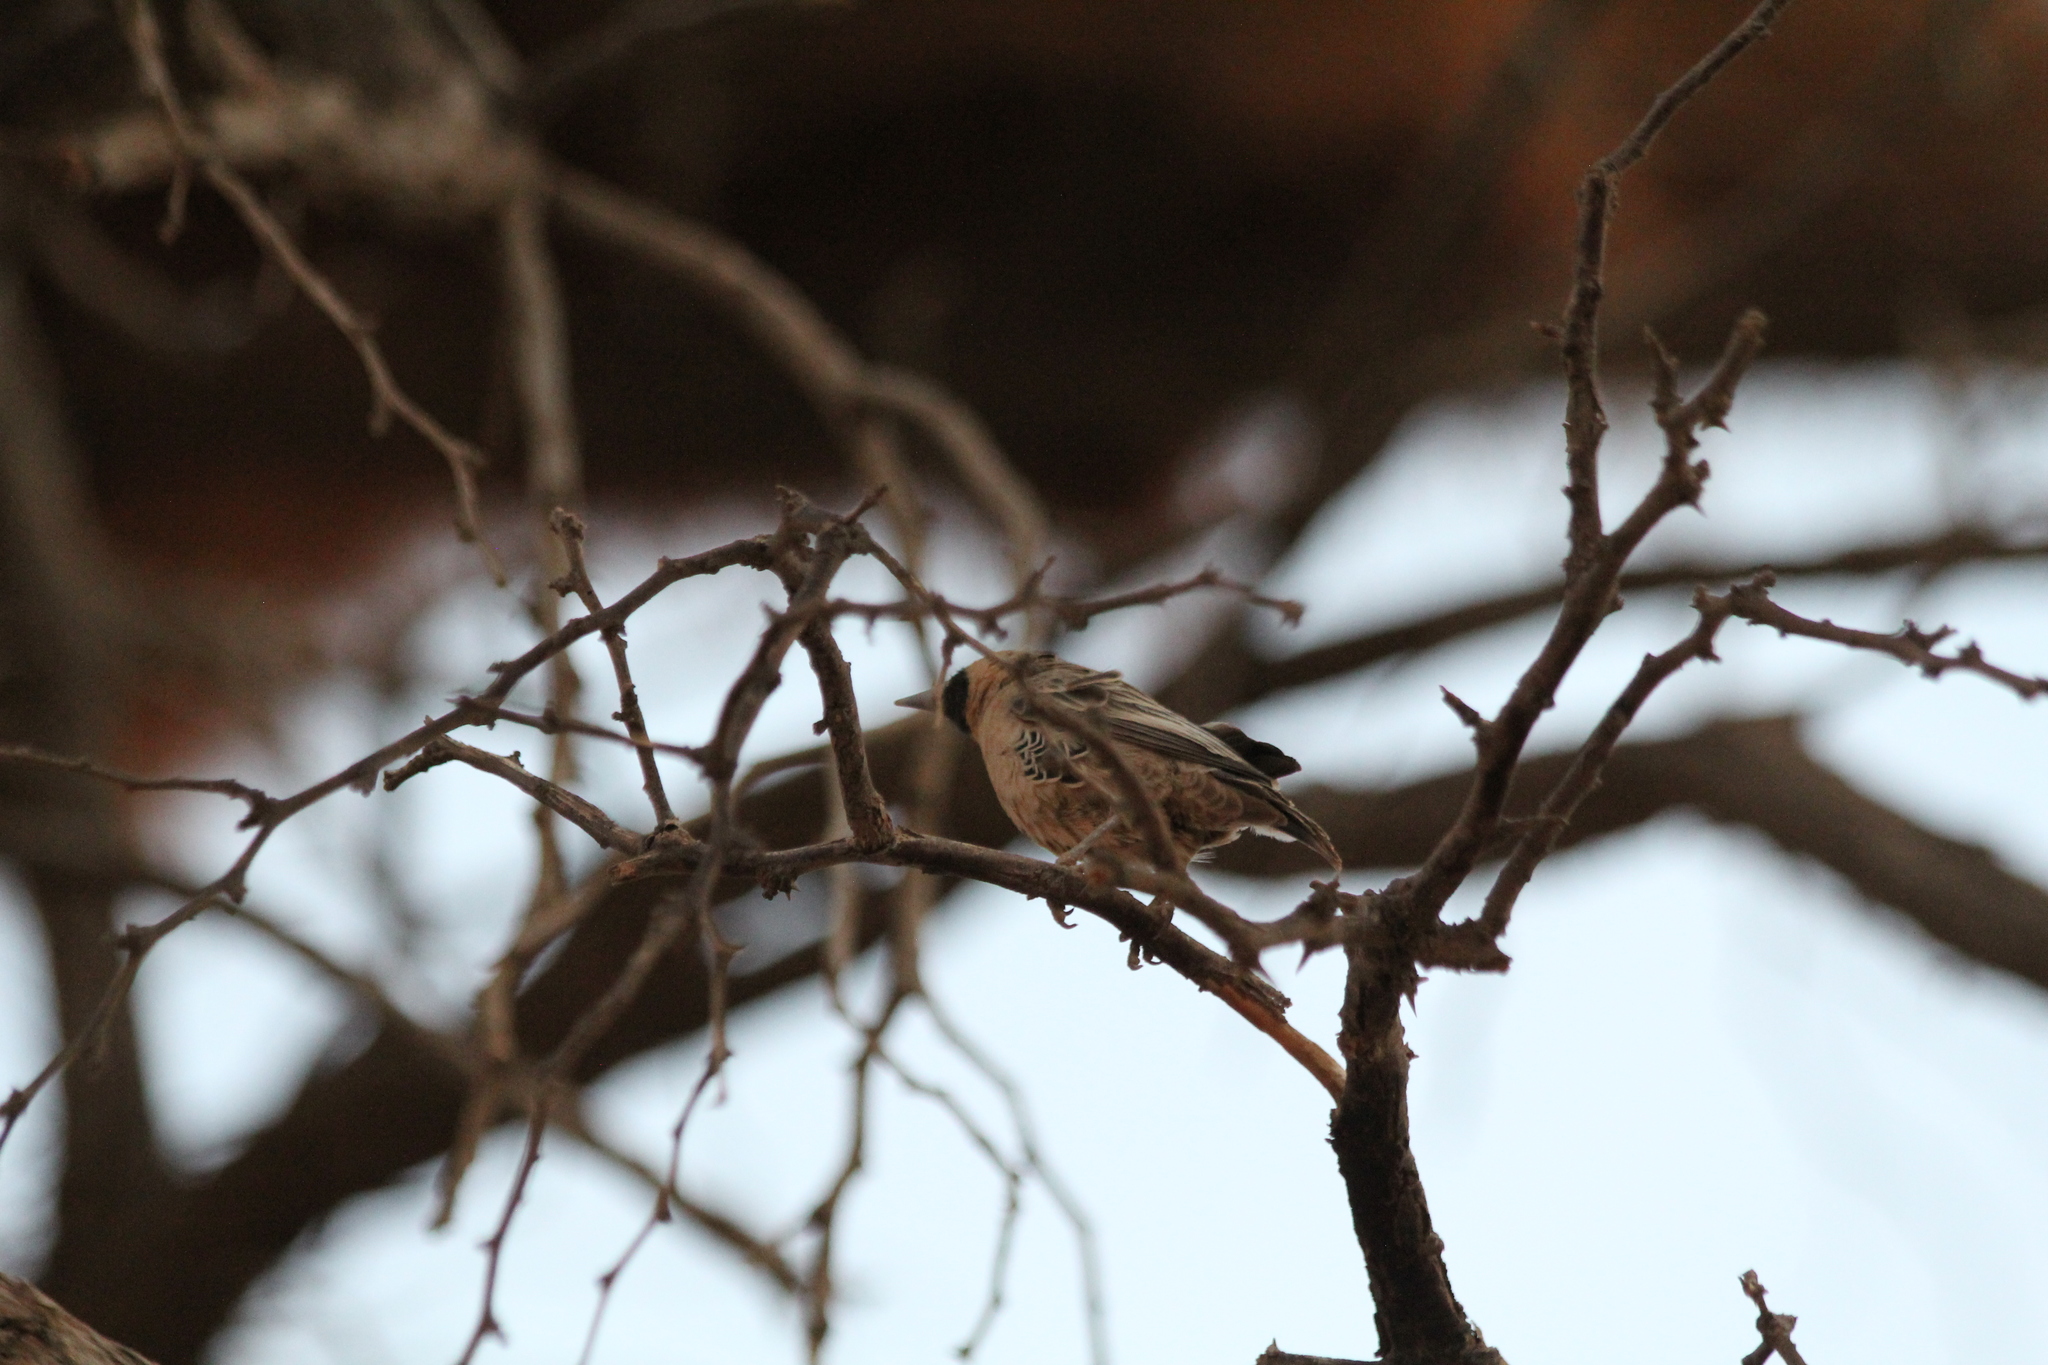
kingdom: Animalia
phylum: Chordata
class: Aves
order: Passeriformes
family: Passeridae
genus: Philetairus
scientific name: Philetairus socius
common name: Sociable weaver
